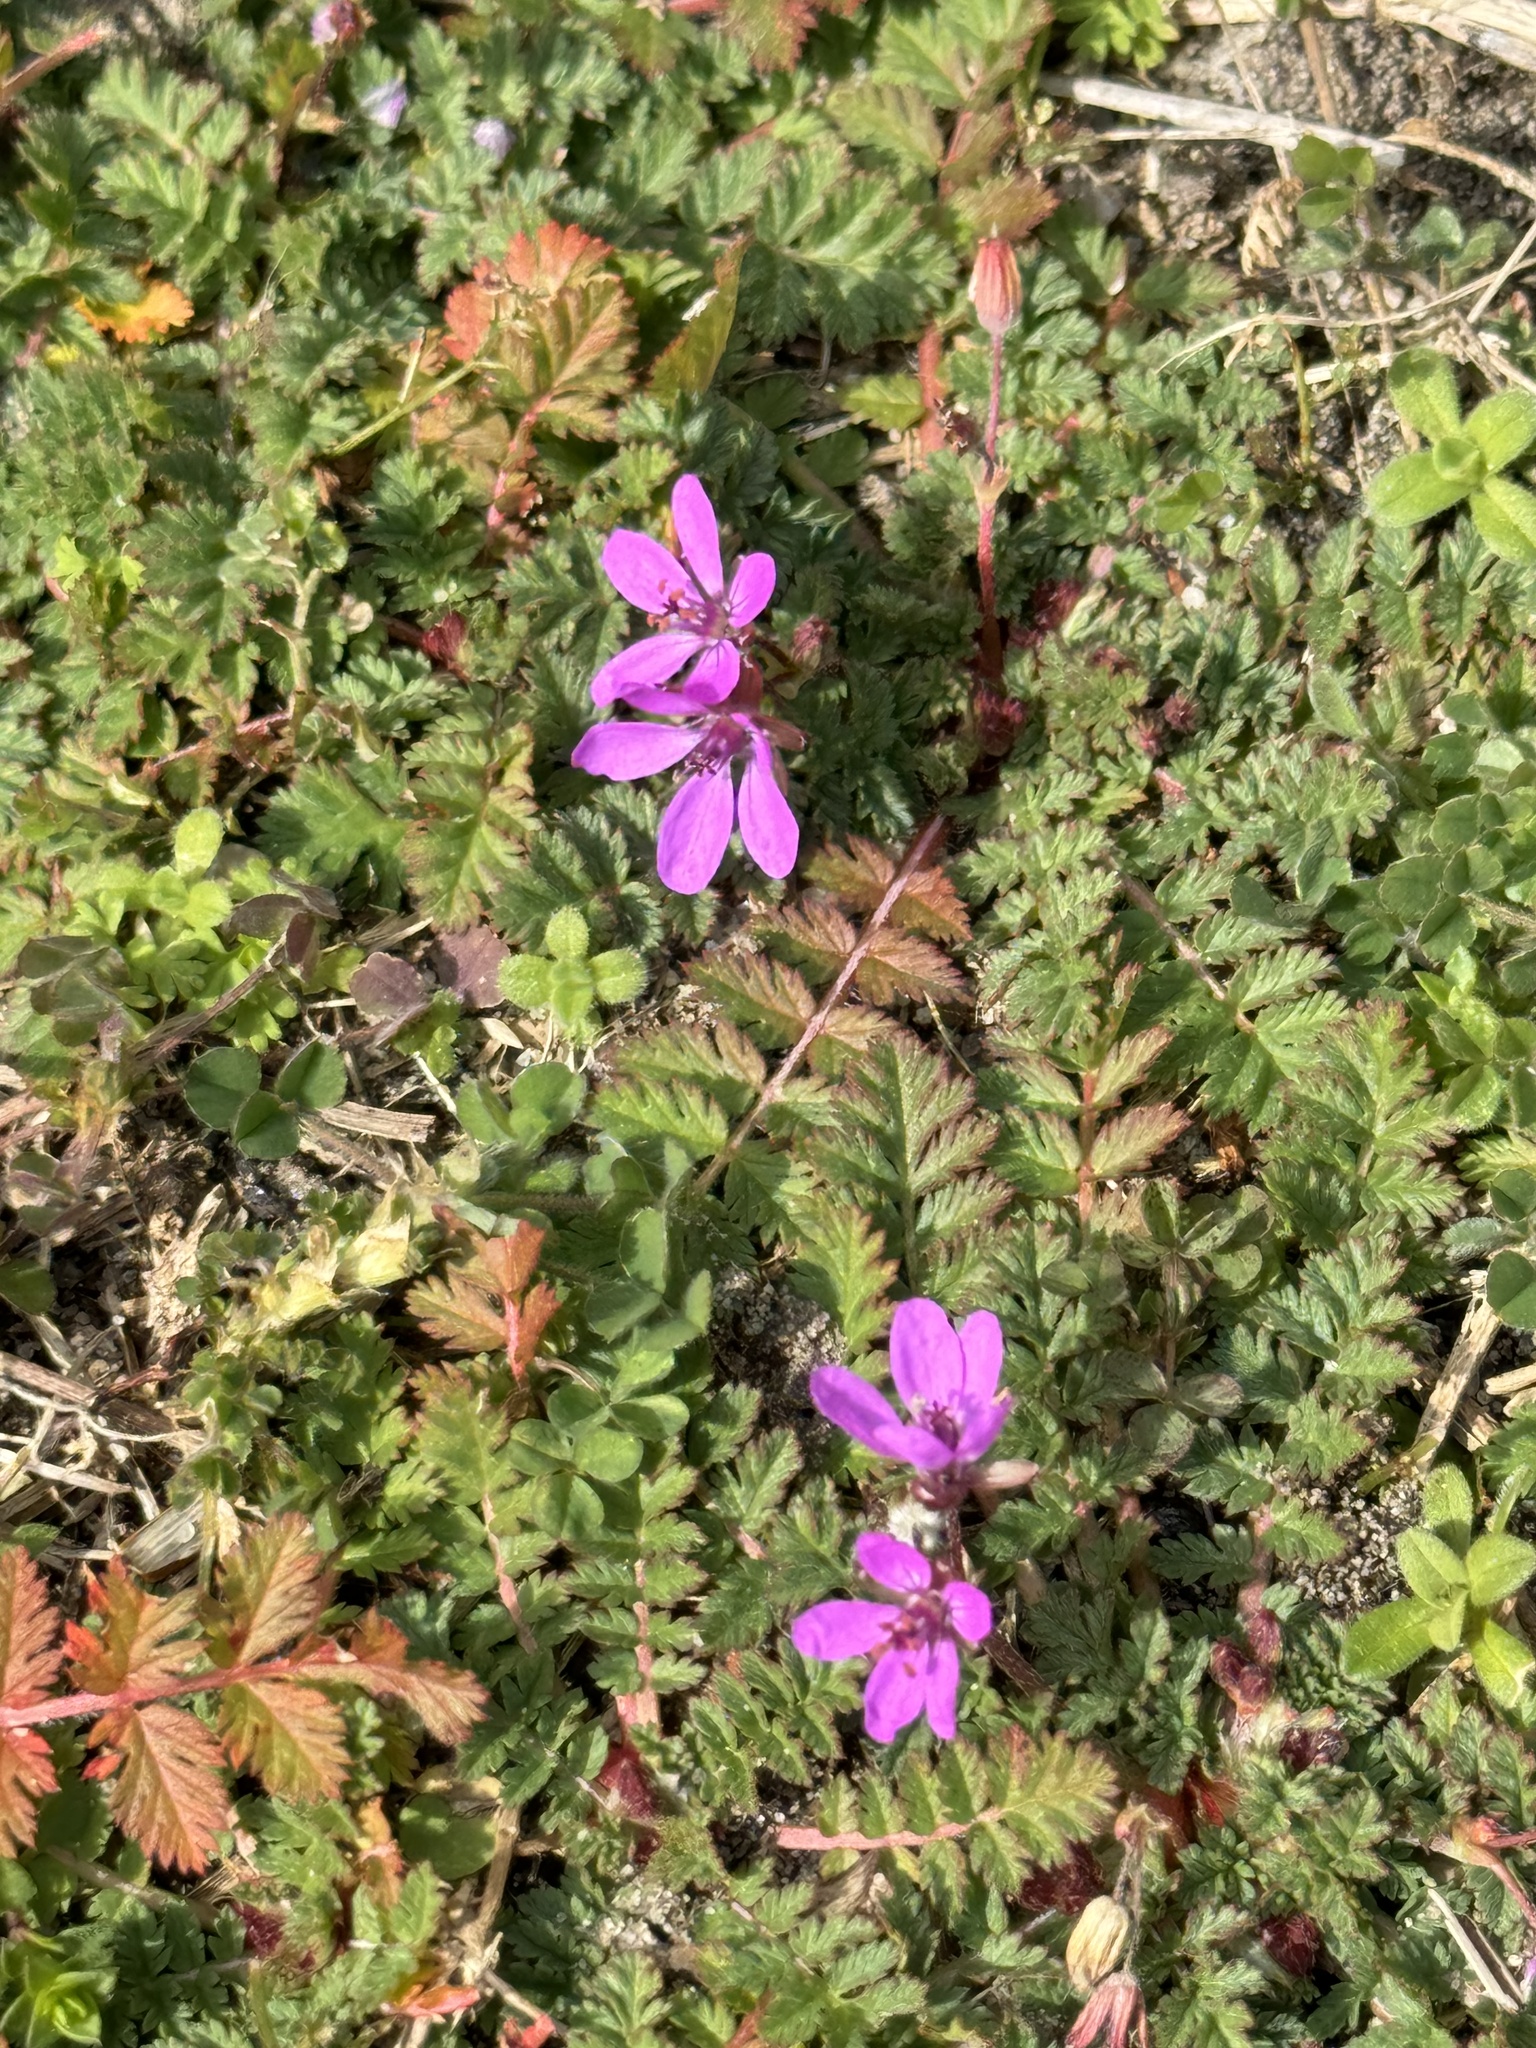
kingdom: Plantae
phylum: Tracheophyta
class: Magnoliopsida
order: Geraniales
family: Geraniaceae
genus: Erodium
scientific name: Erodium cicutarium
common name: Common stork's-bill
